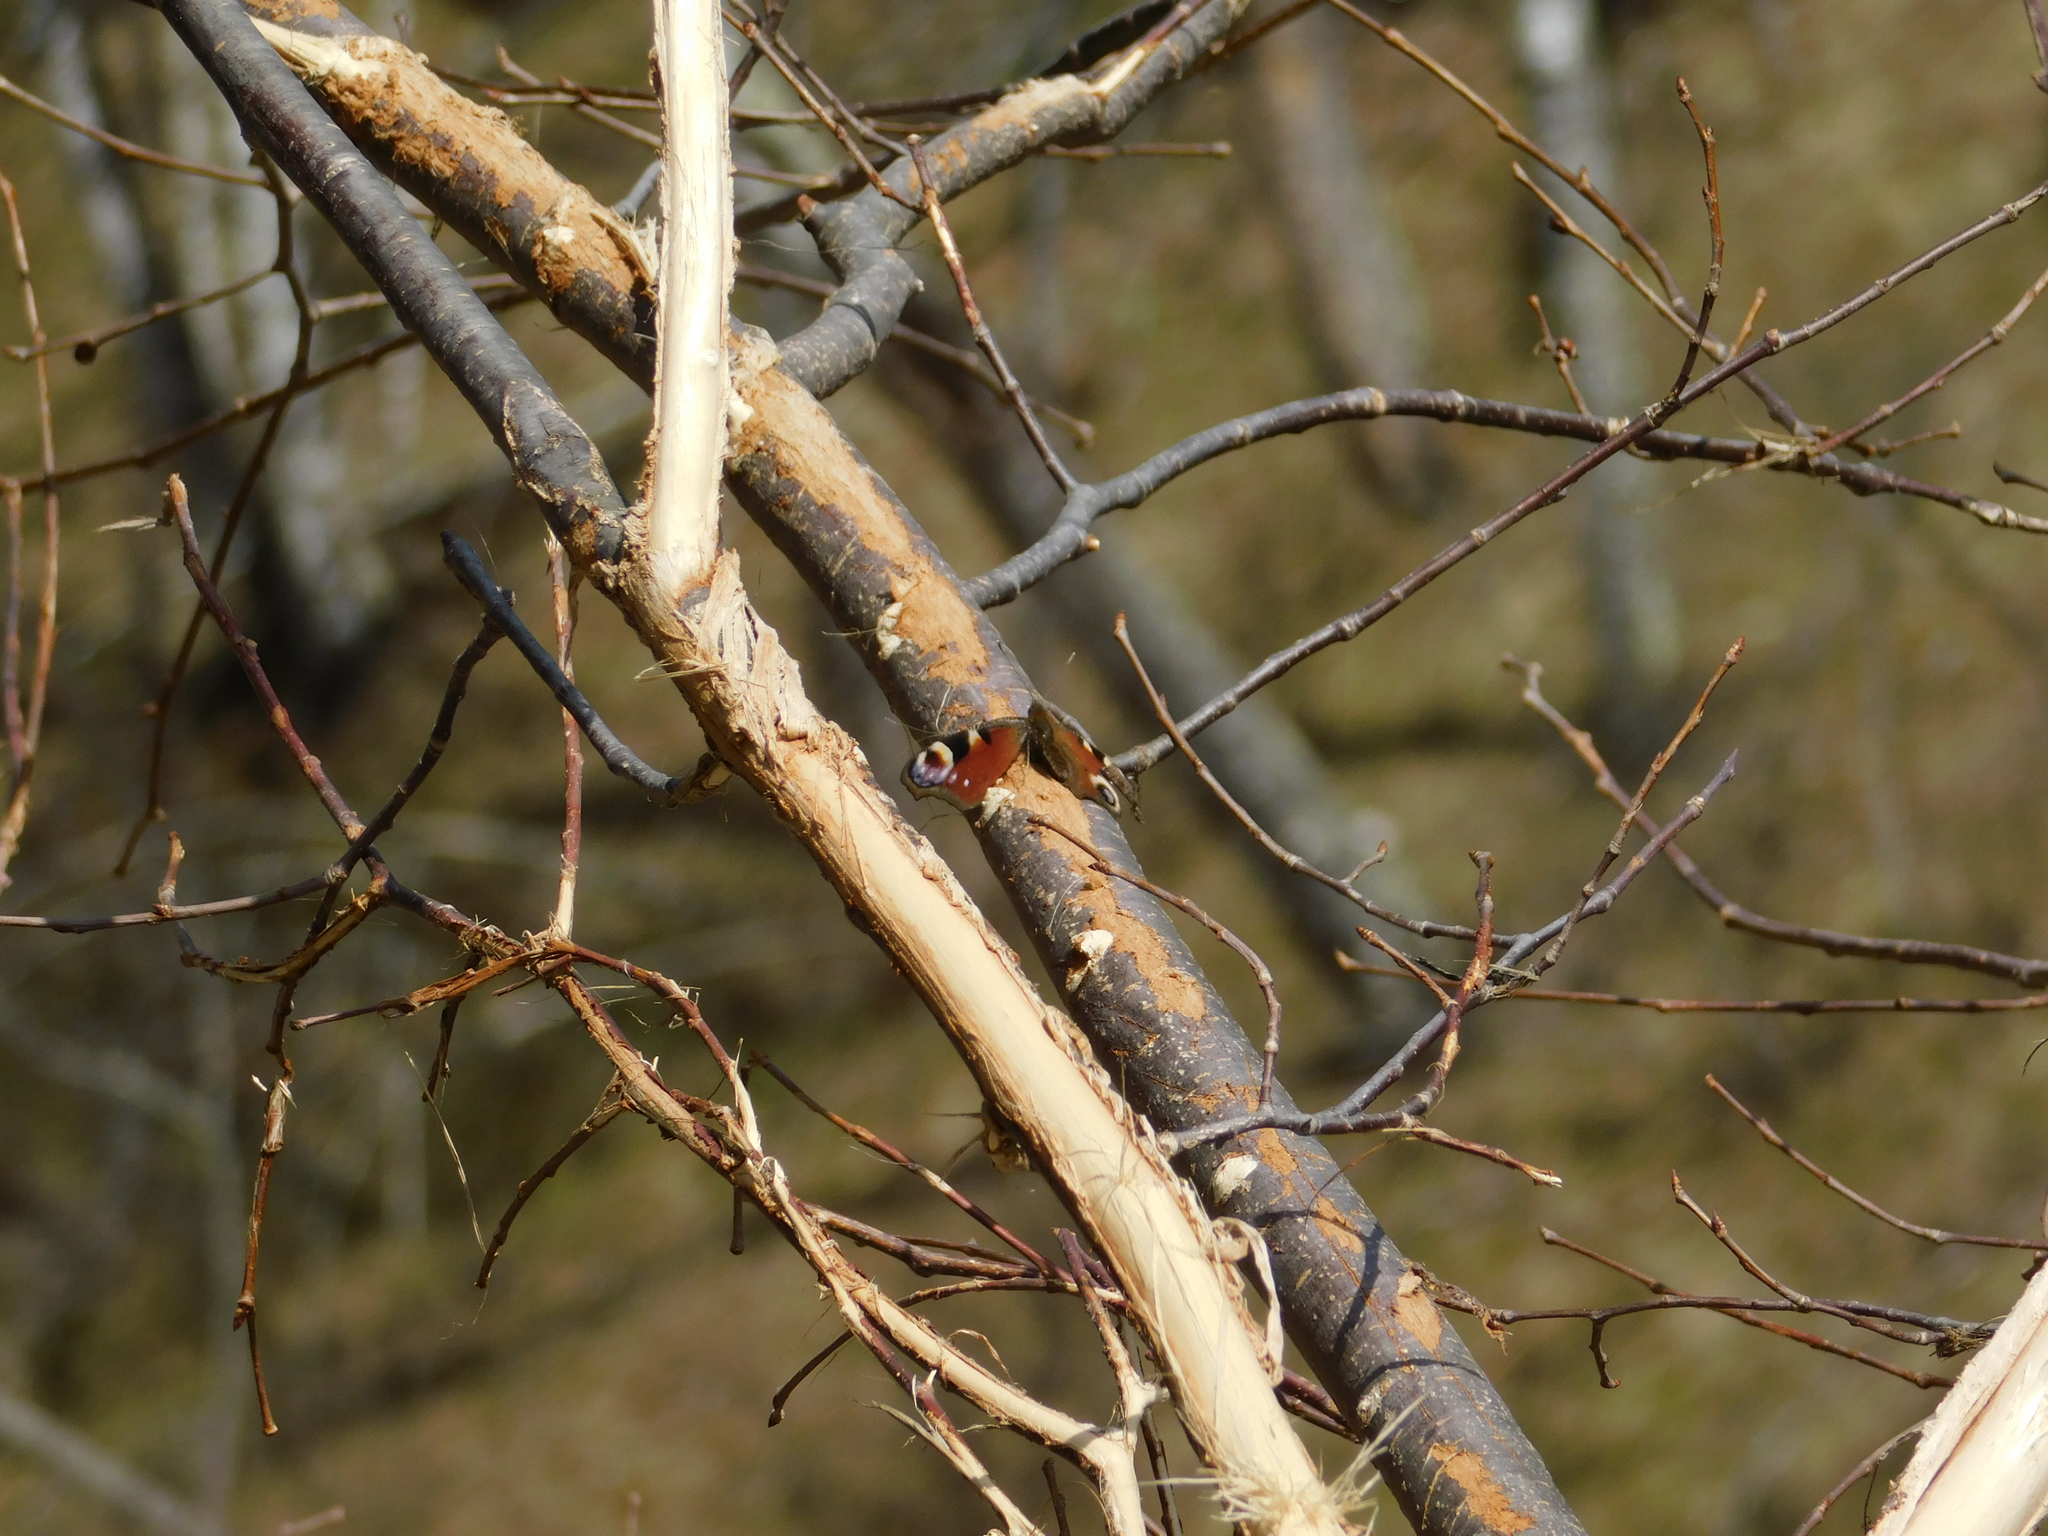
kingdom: Animalia
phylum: Arthropoda
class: Insecta
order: Lepidoptera
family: Nymphalidae
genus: Aglais
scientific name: Aglais io
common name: Peacock
